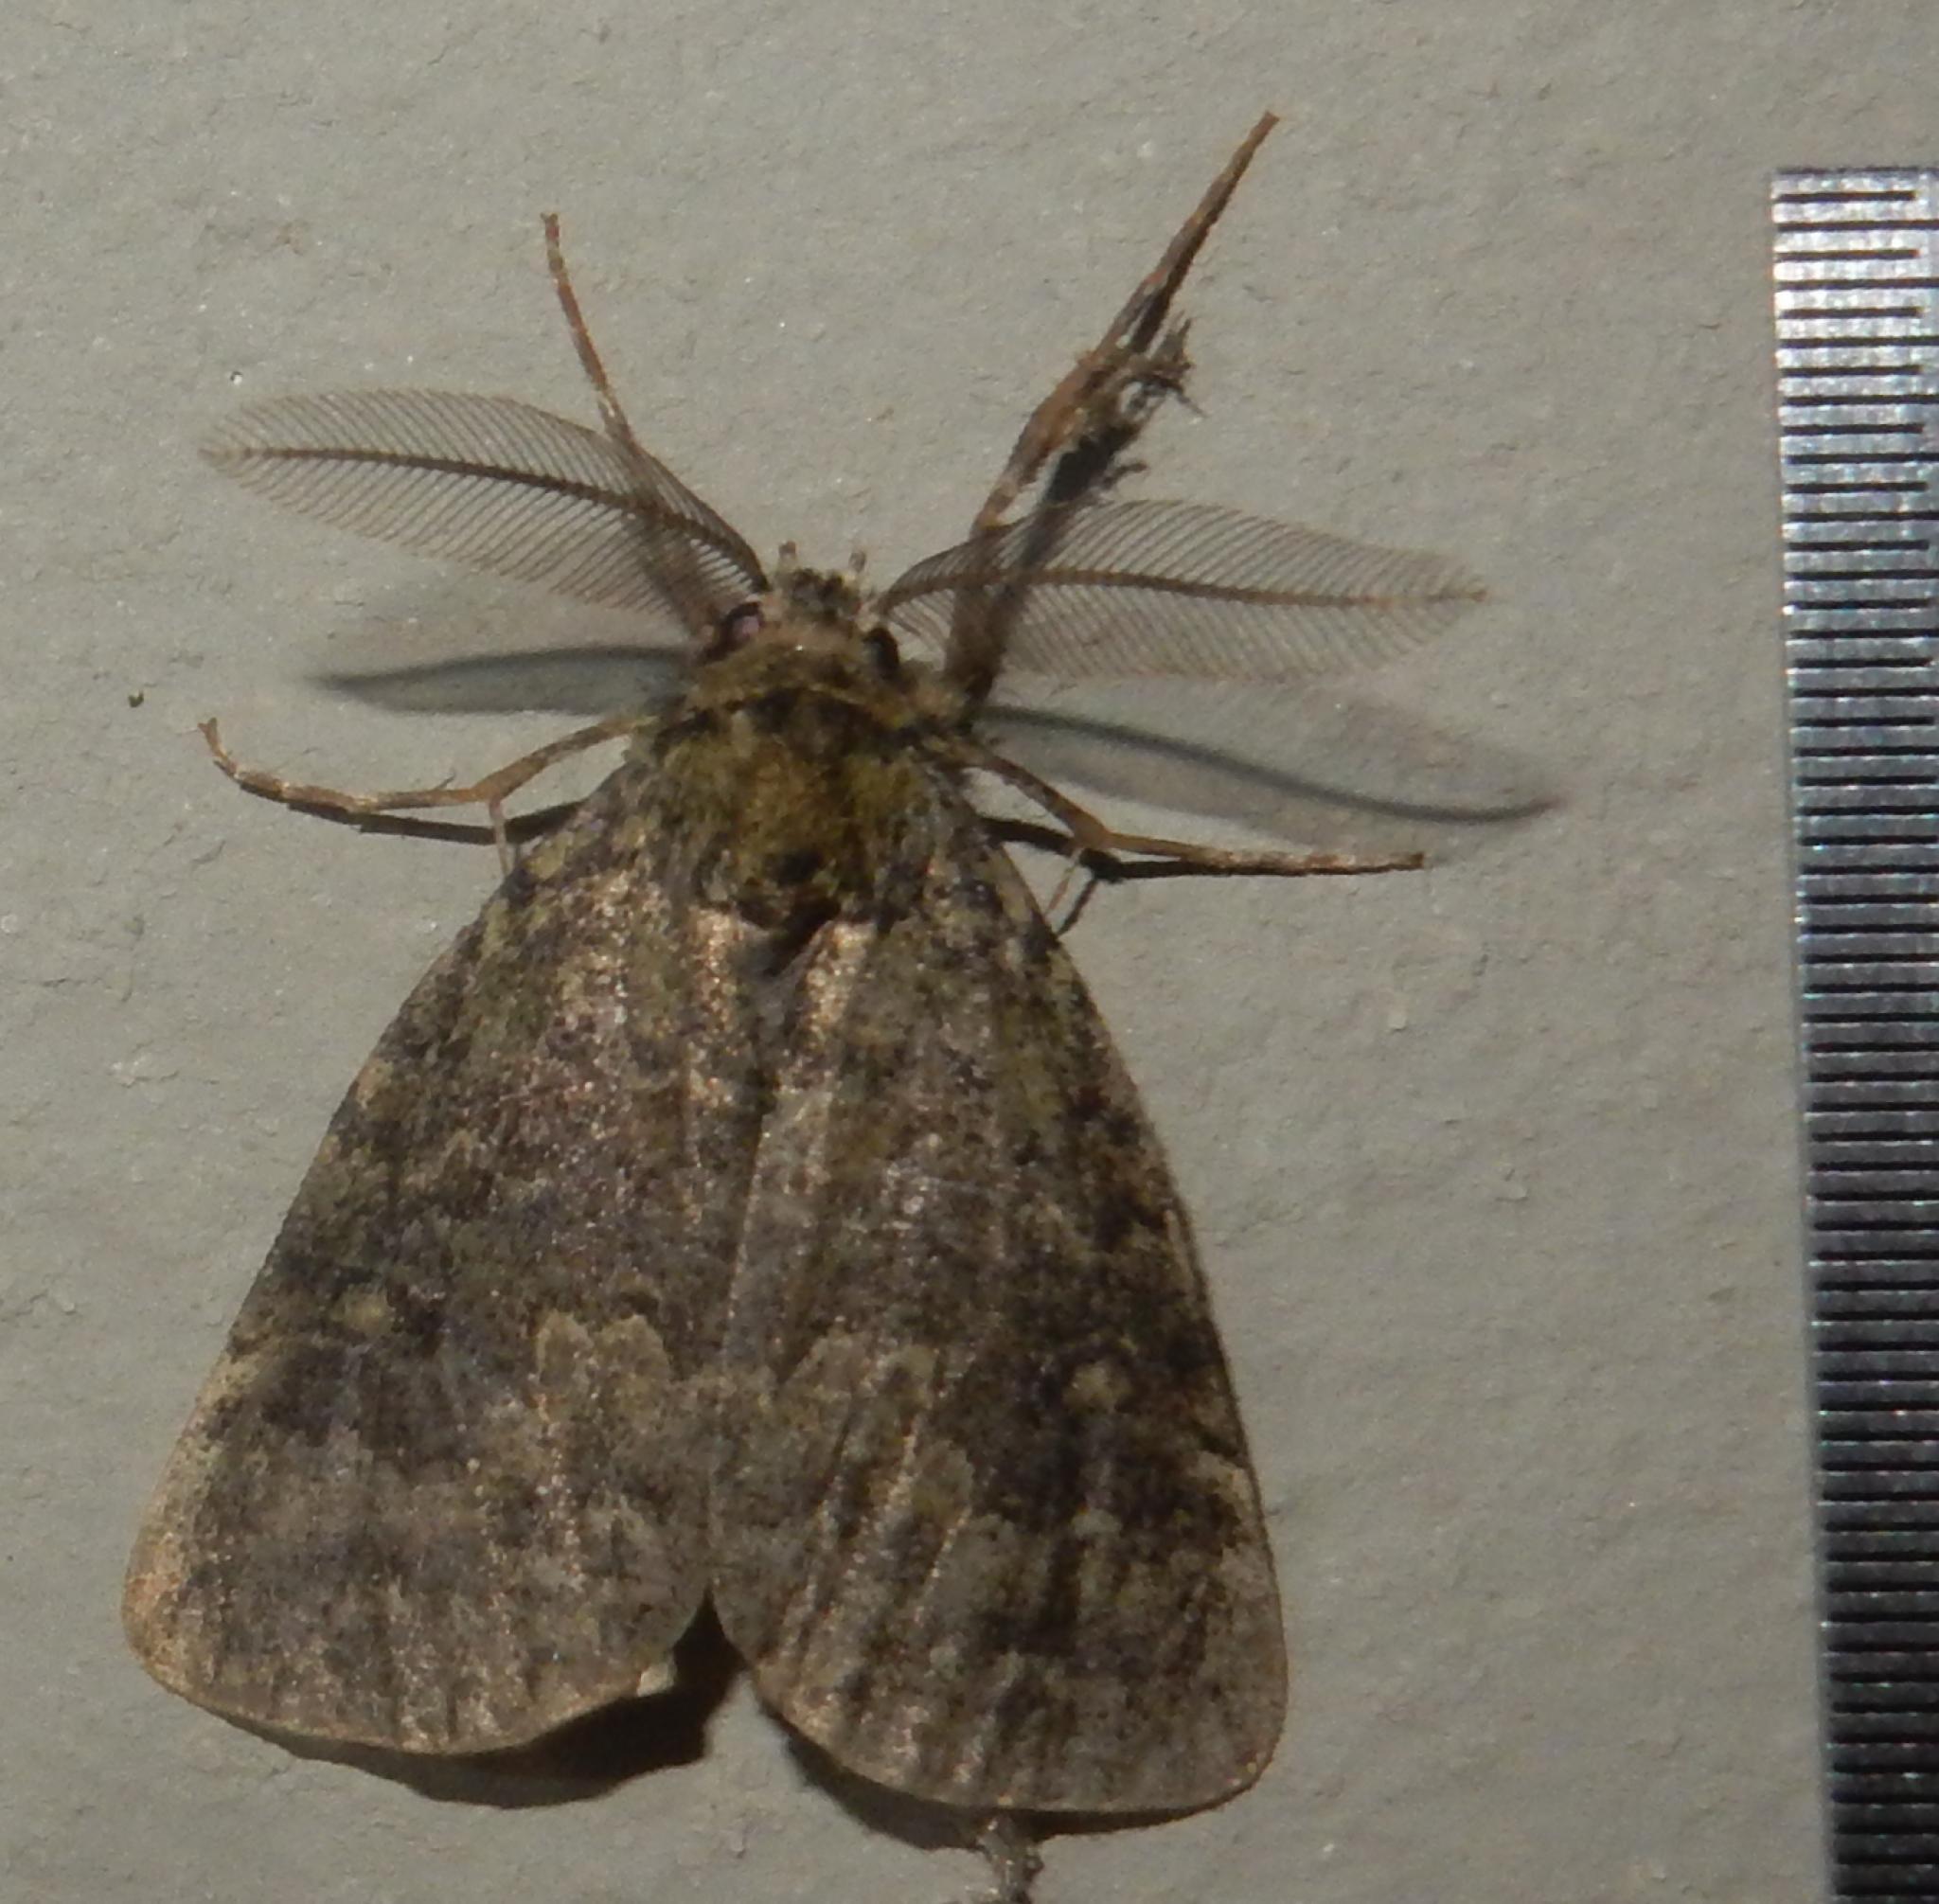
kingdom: Animalia
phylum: Arthropoda
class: Insecta
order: Lepidoptera
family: Erebidae
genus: Laelia
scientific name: Laelia fusca
